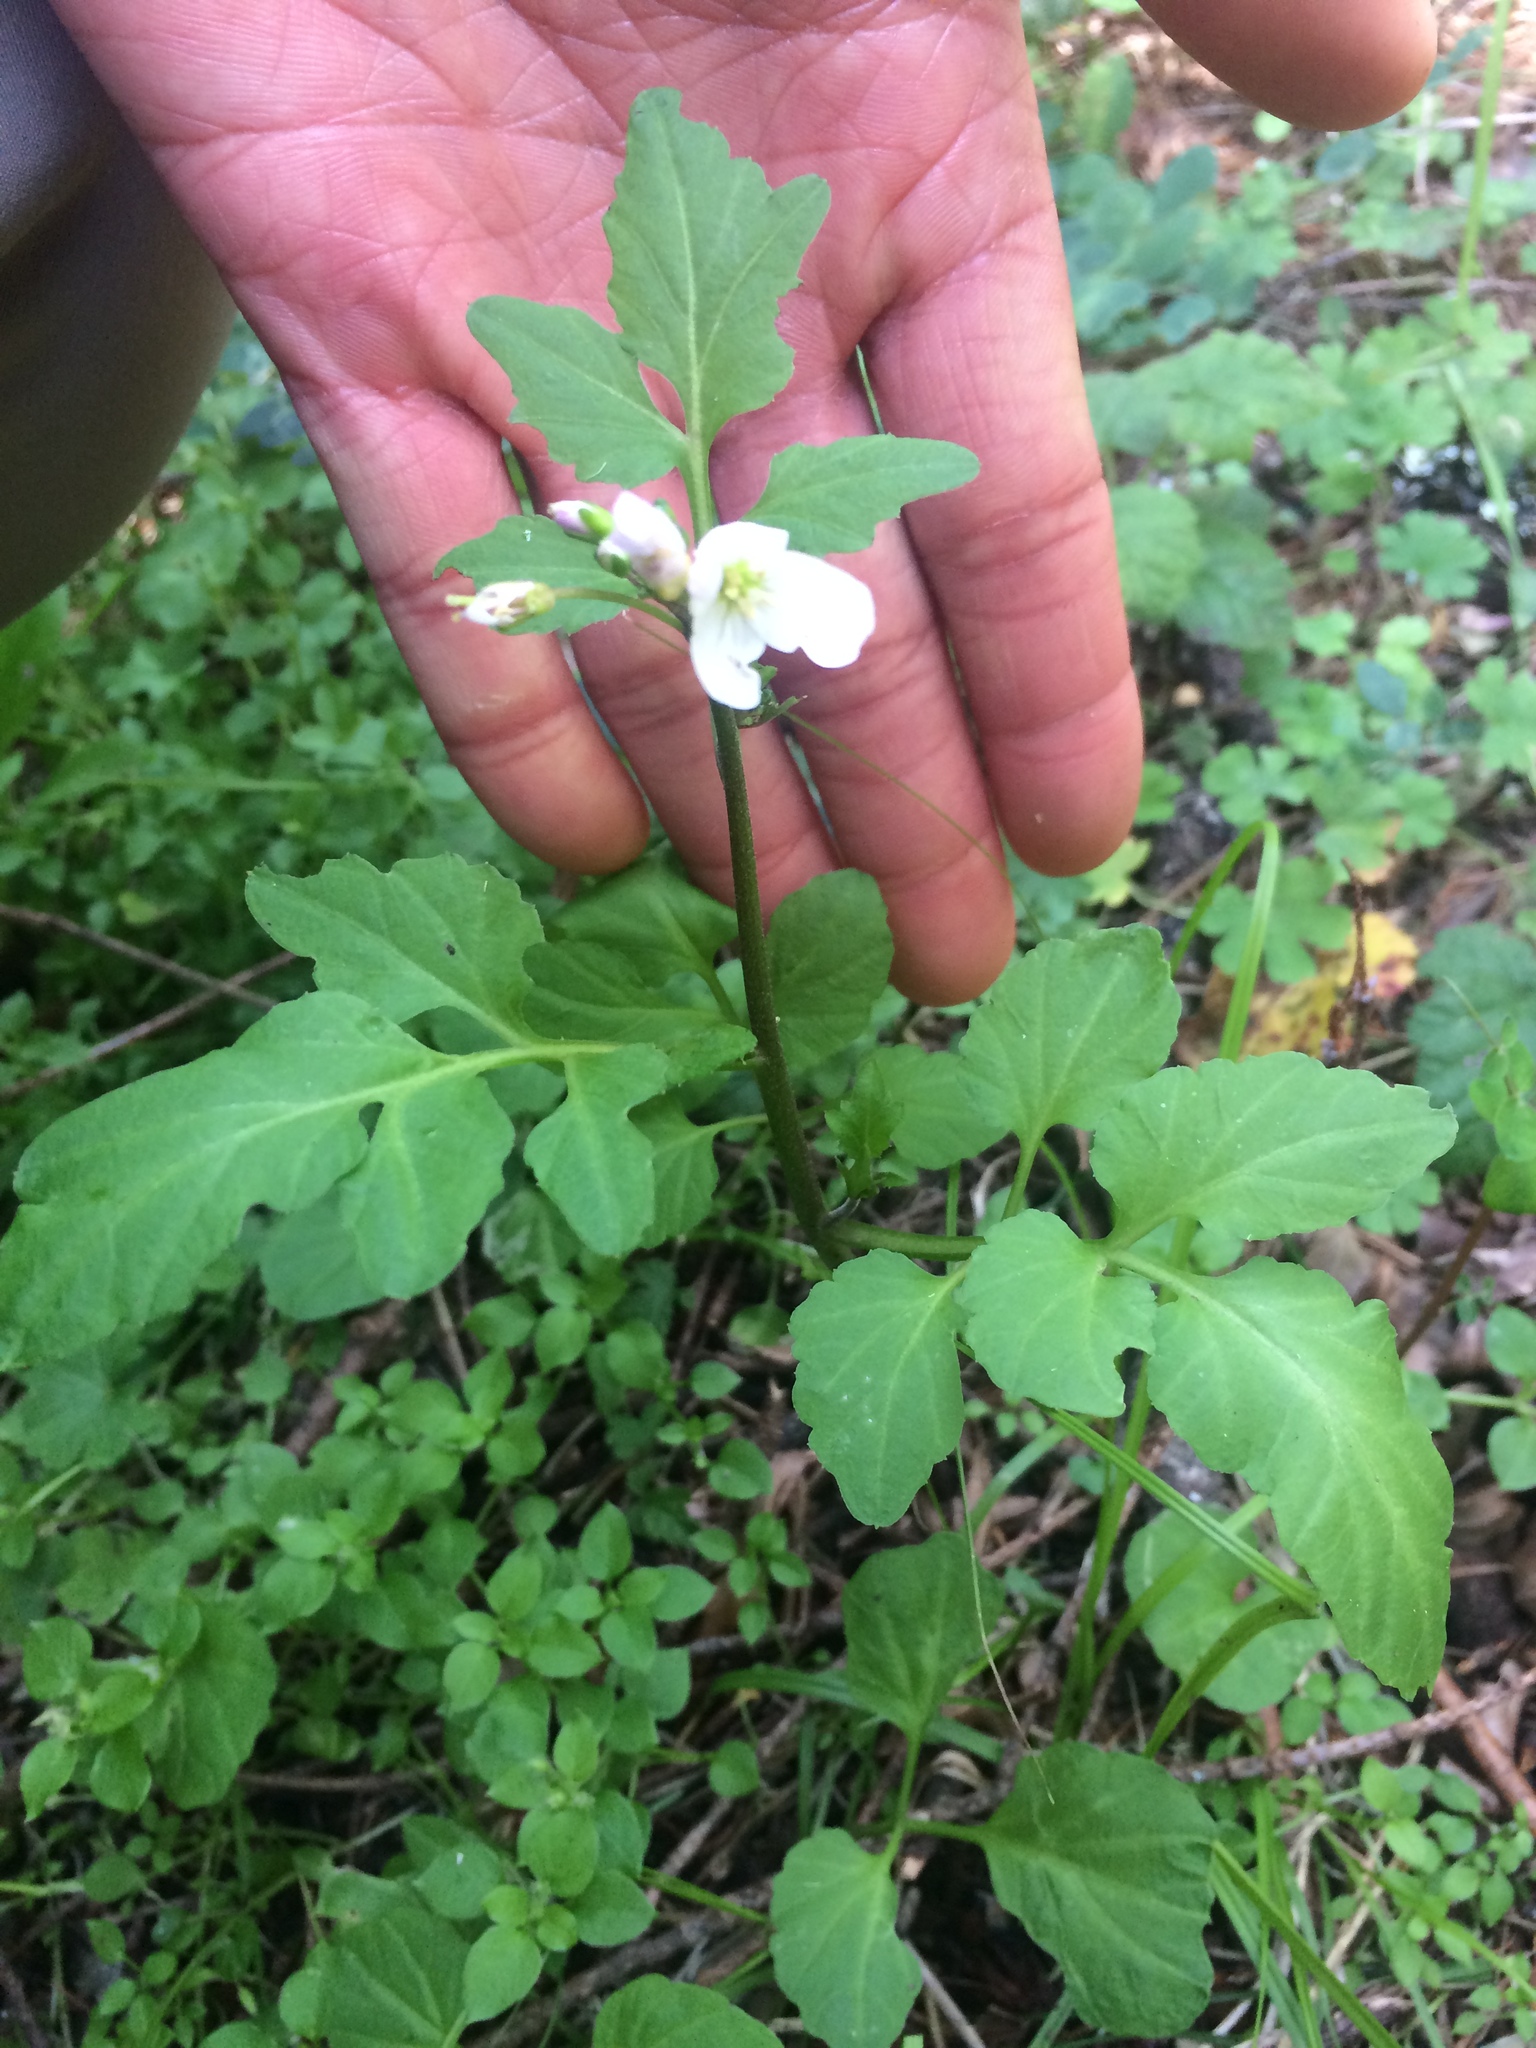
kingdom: Plantae
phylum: Tracheophyta
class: Magnoliopsida
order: Brassicales
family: Brassicaceae
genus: Cardamine
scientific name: Cardamine californica
